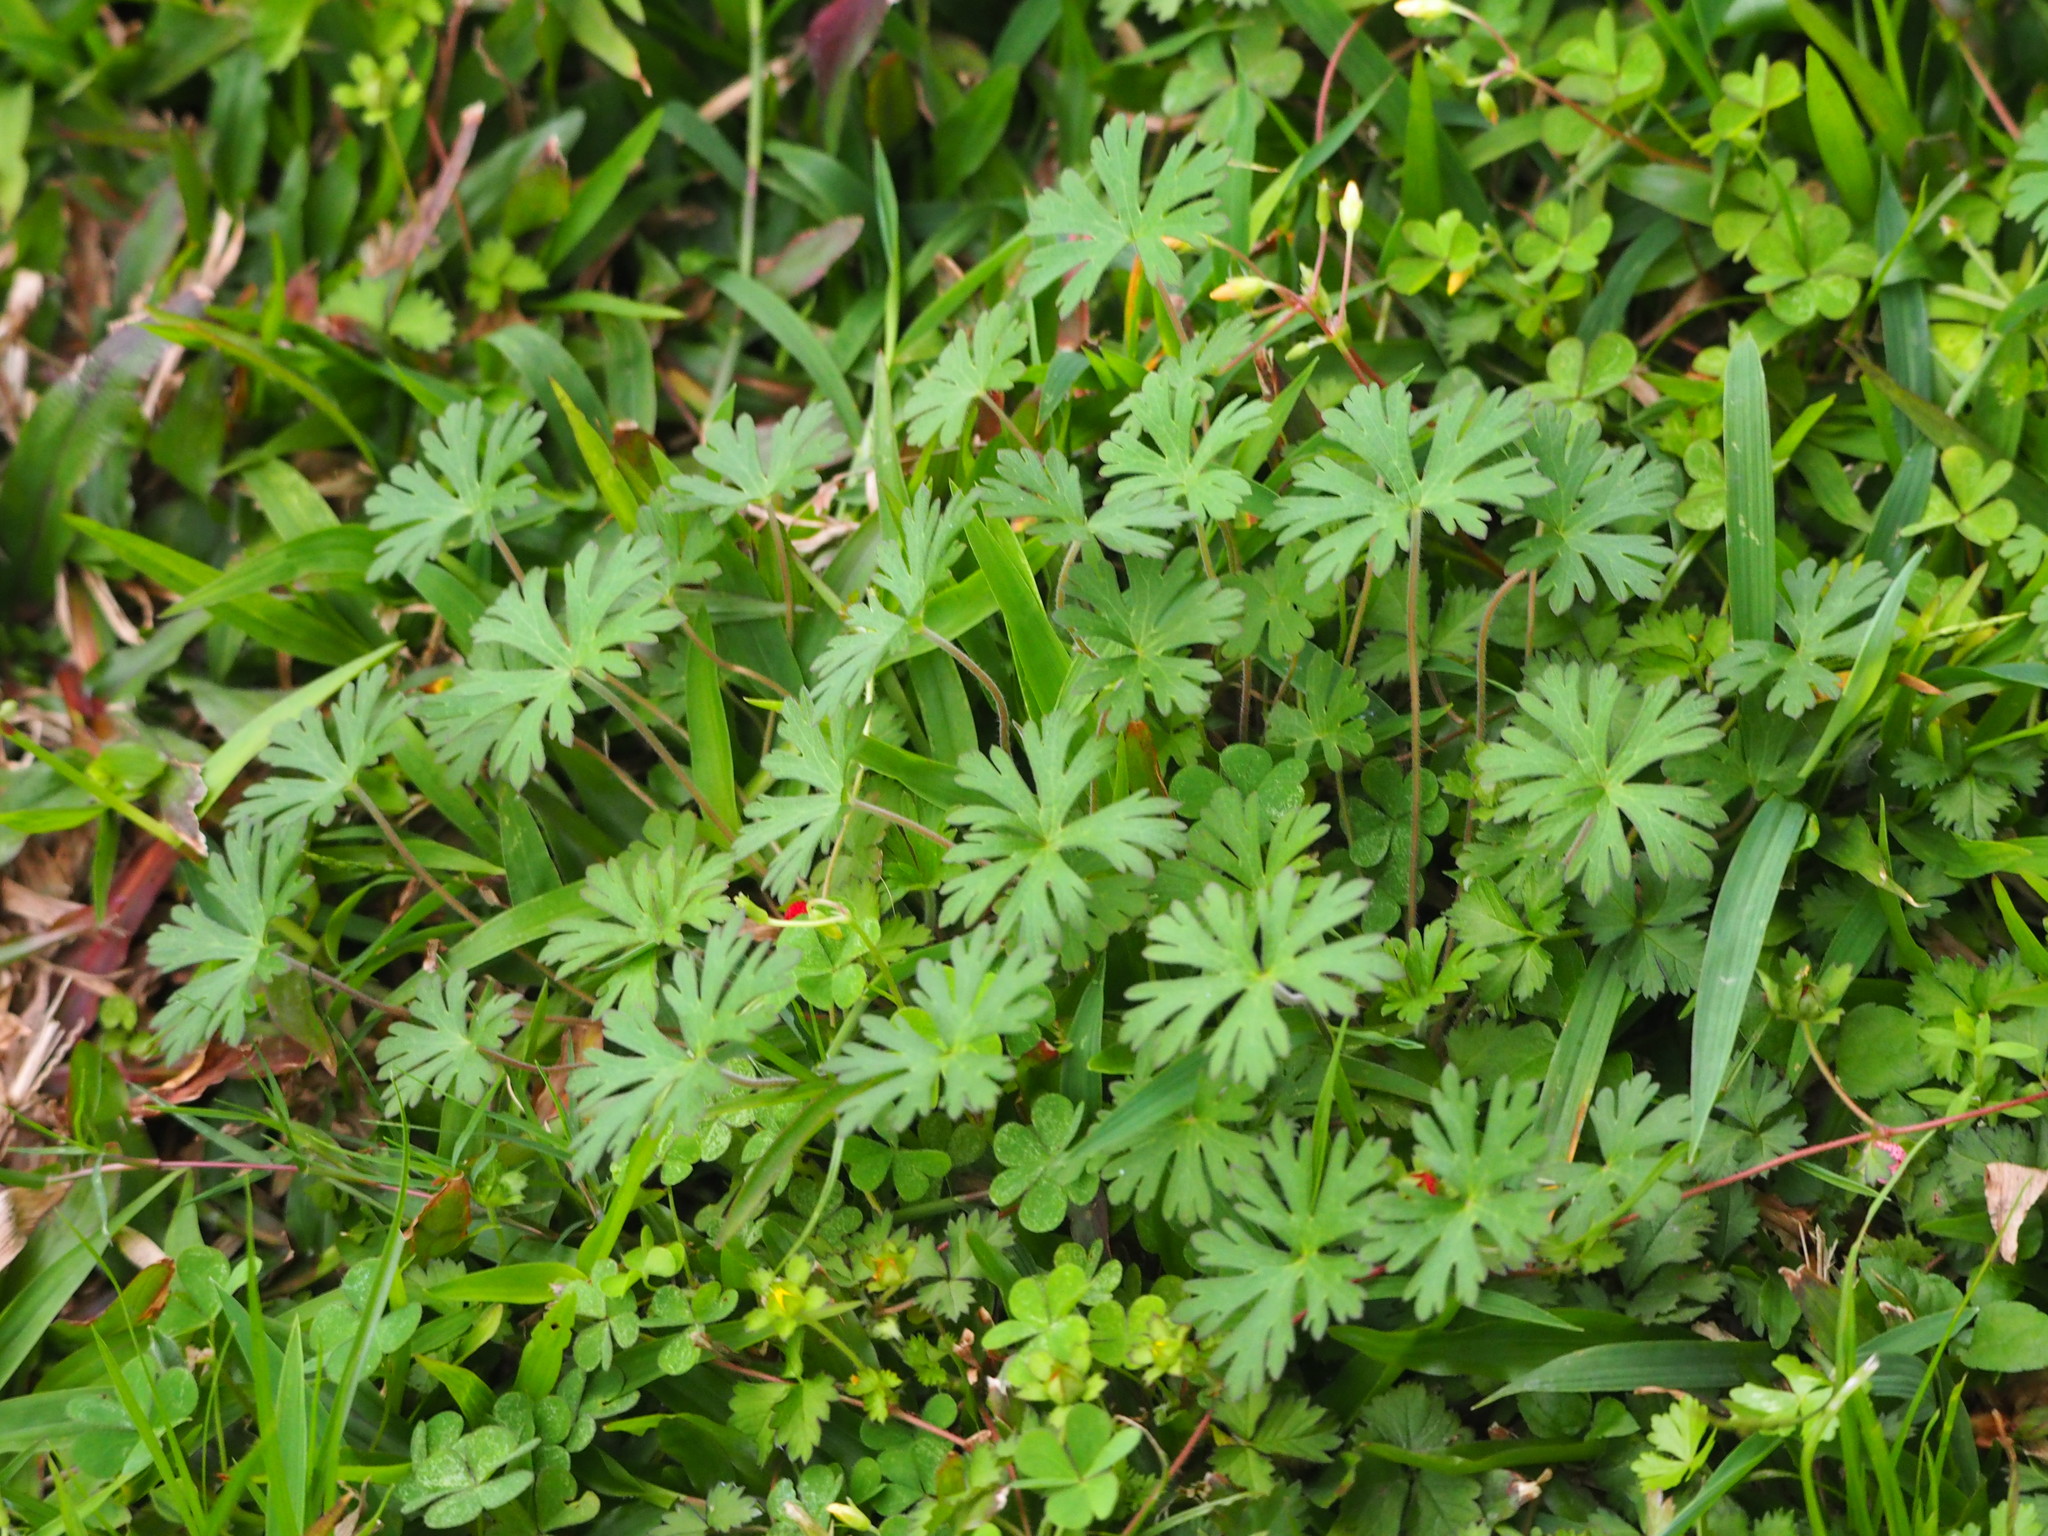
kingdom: Plantae
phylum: Tracheophyta
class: Magnoliopsida
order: Geraniales
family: Geraniaceae
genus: Geranium
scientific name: Geranium carolinianum
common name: Carolina crane's-bill
